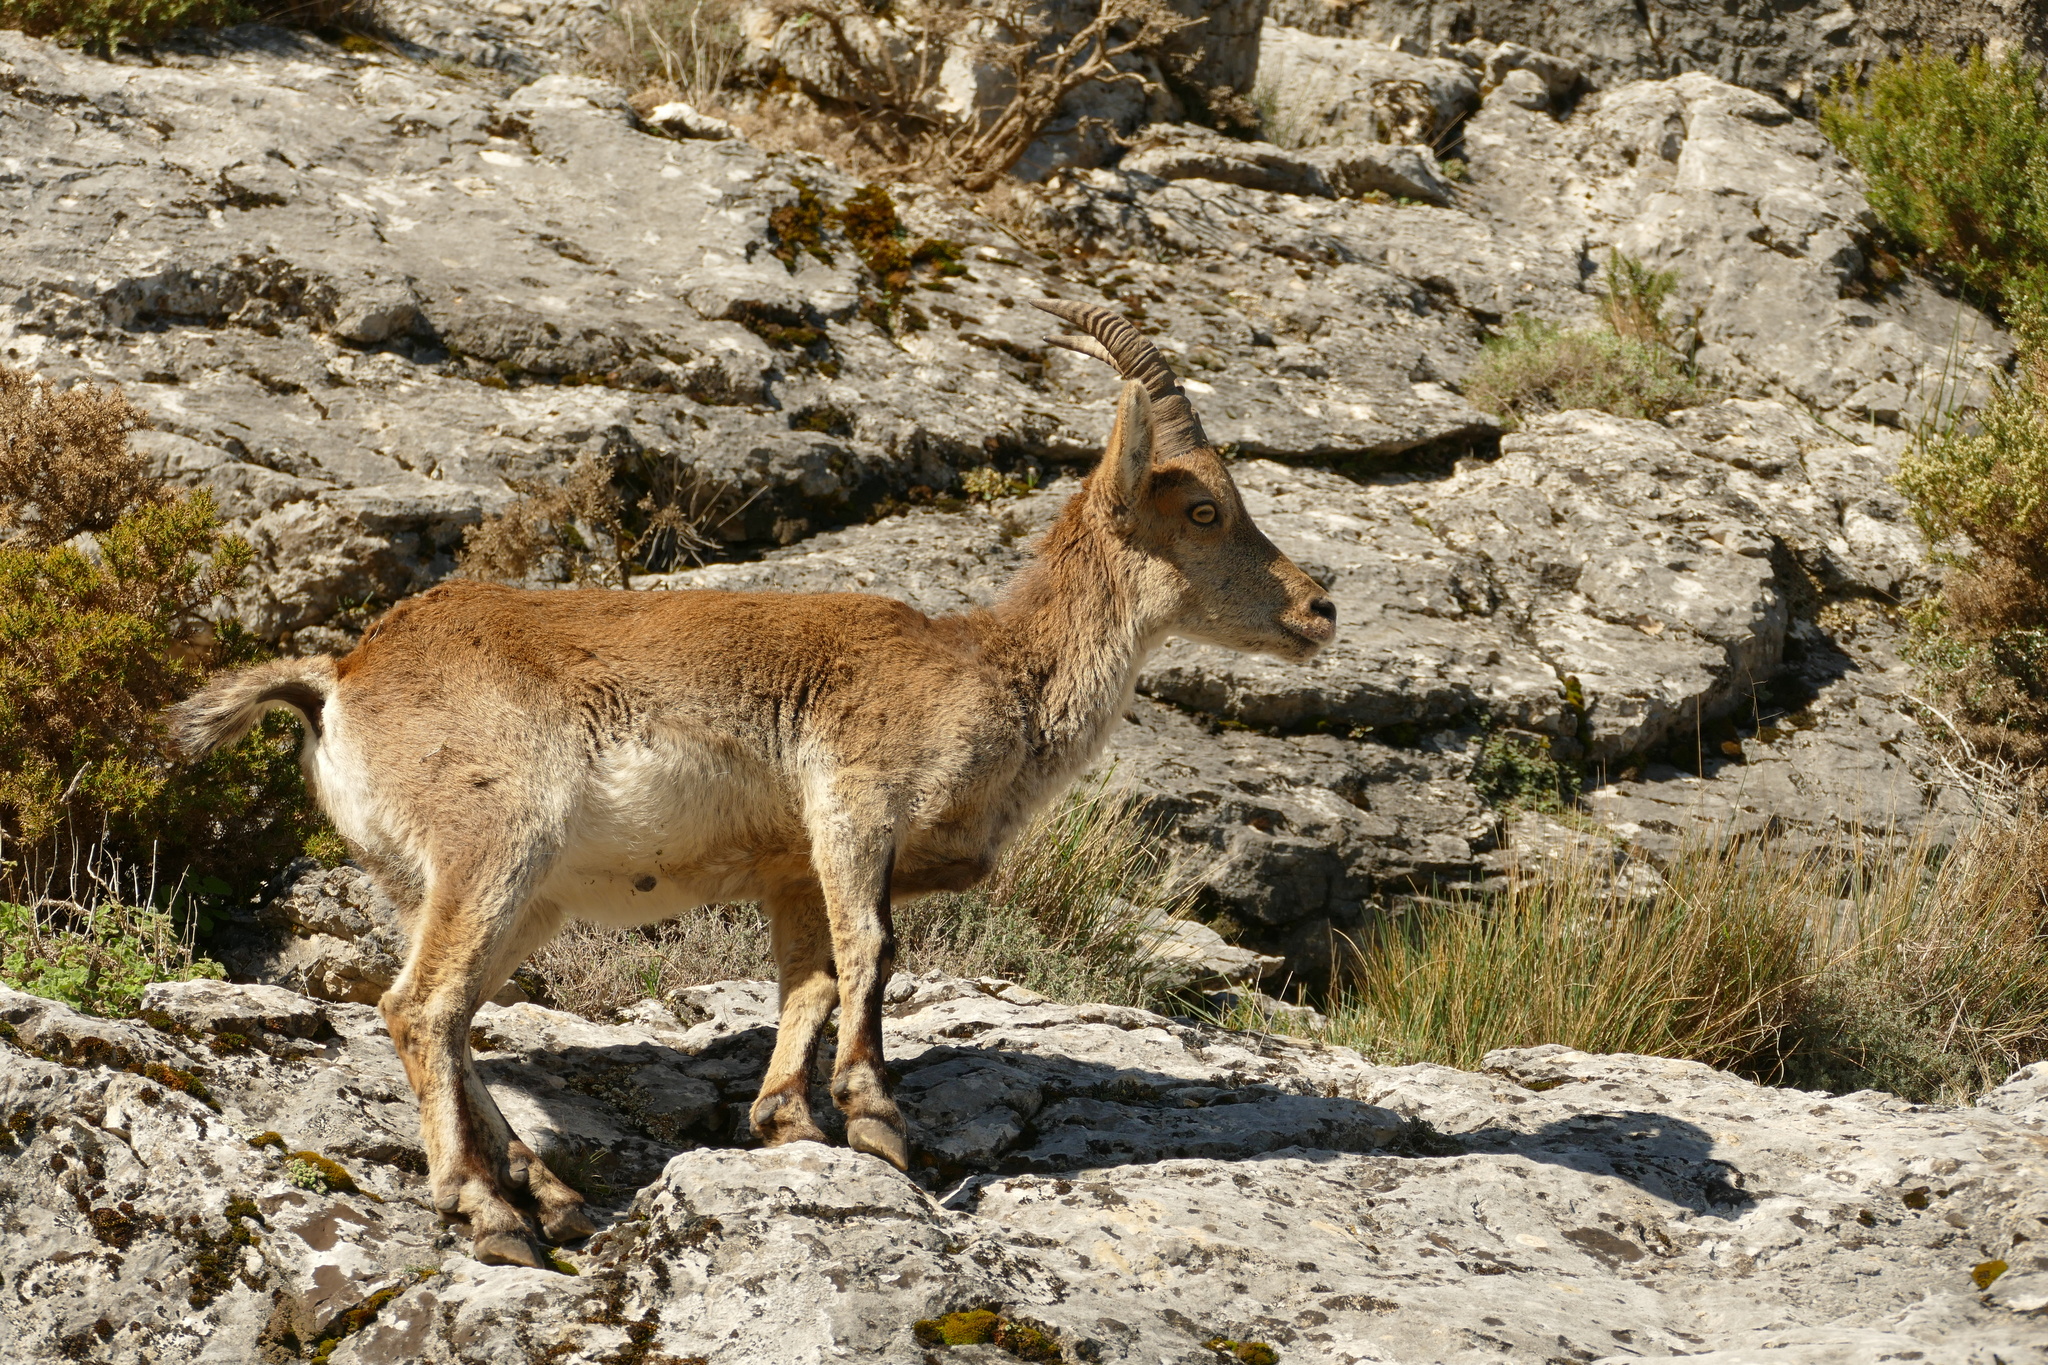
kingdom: Animalia
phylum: Chordata
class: Mammalia
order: Artiodactyla
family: Bovidae
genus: Capra
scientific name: Capra pyrenaica
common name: Spanish ibex
